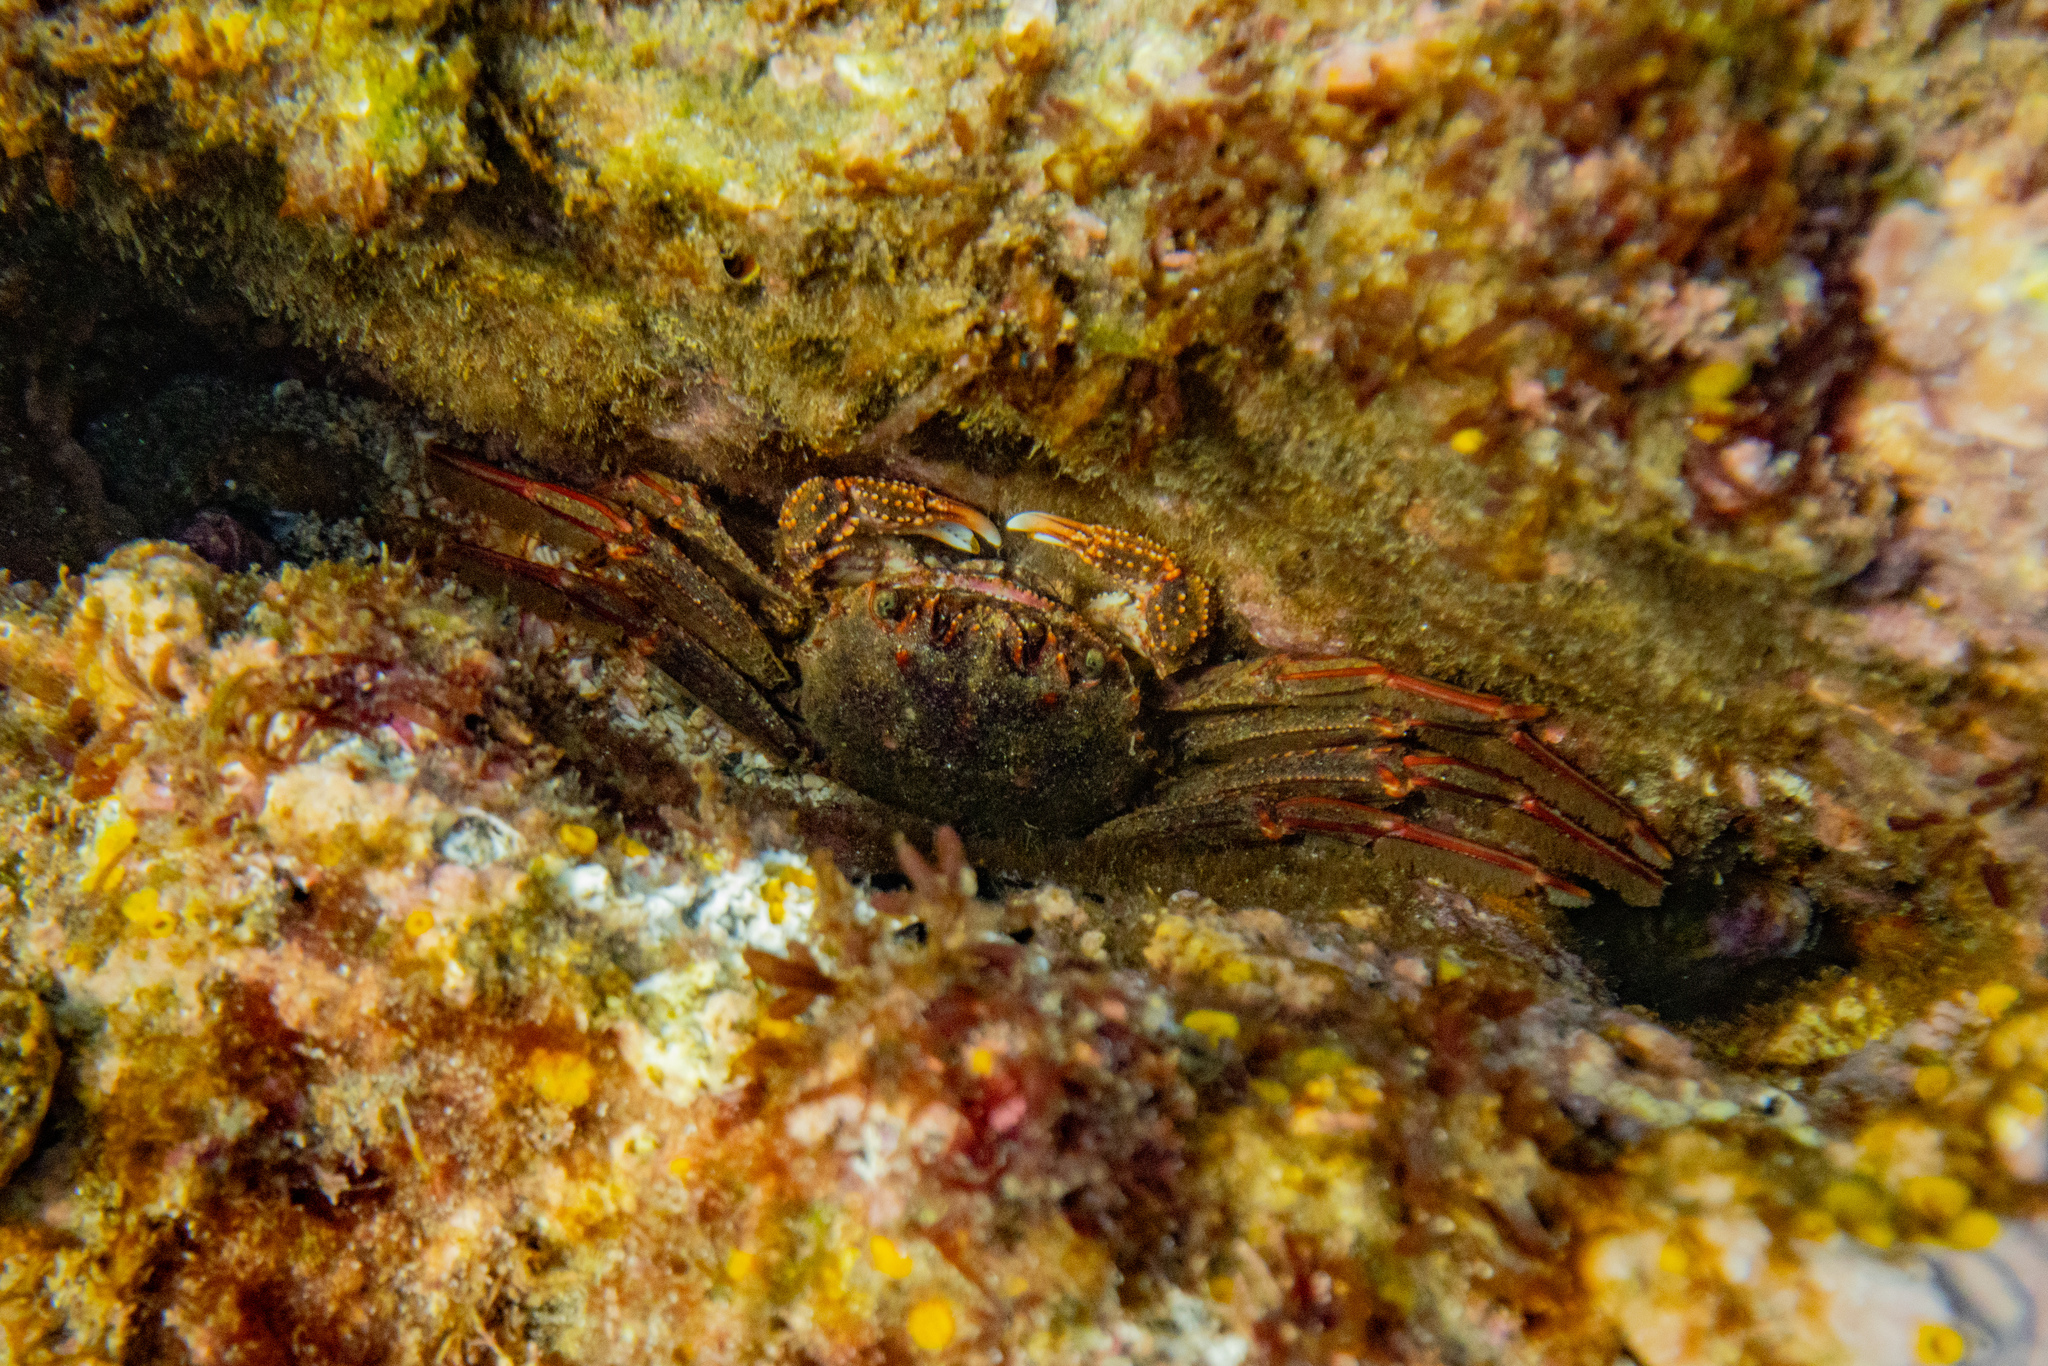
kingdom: Animalia
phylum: Arthropoda
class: Malacostraca
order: Decapoda
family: Plagusiidae
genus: Guinusia
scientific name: Guinusia chabrus
